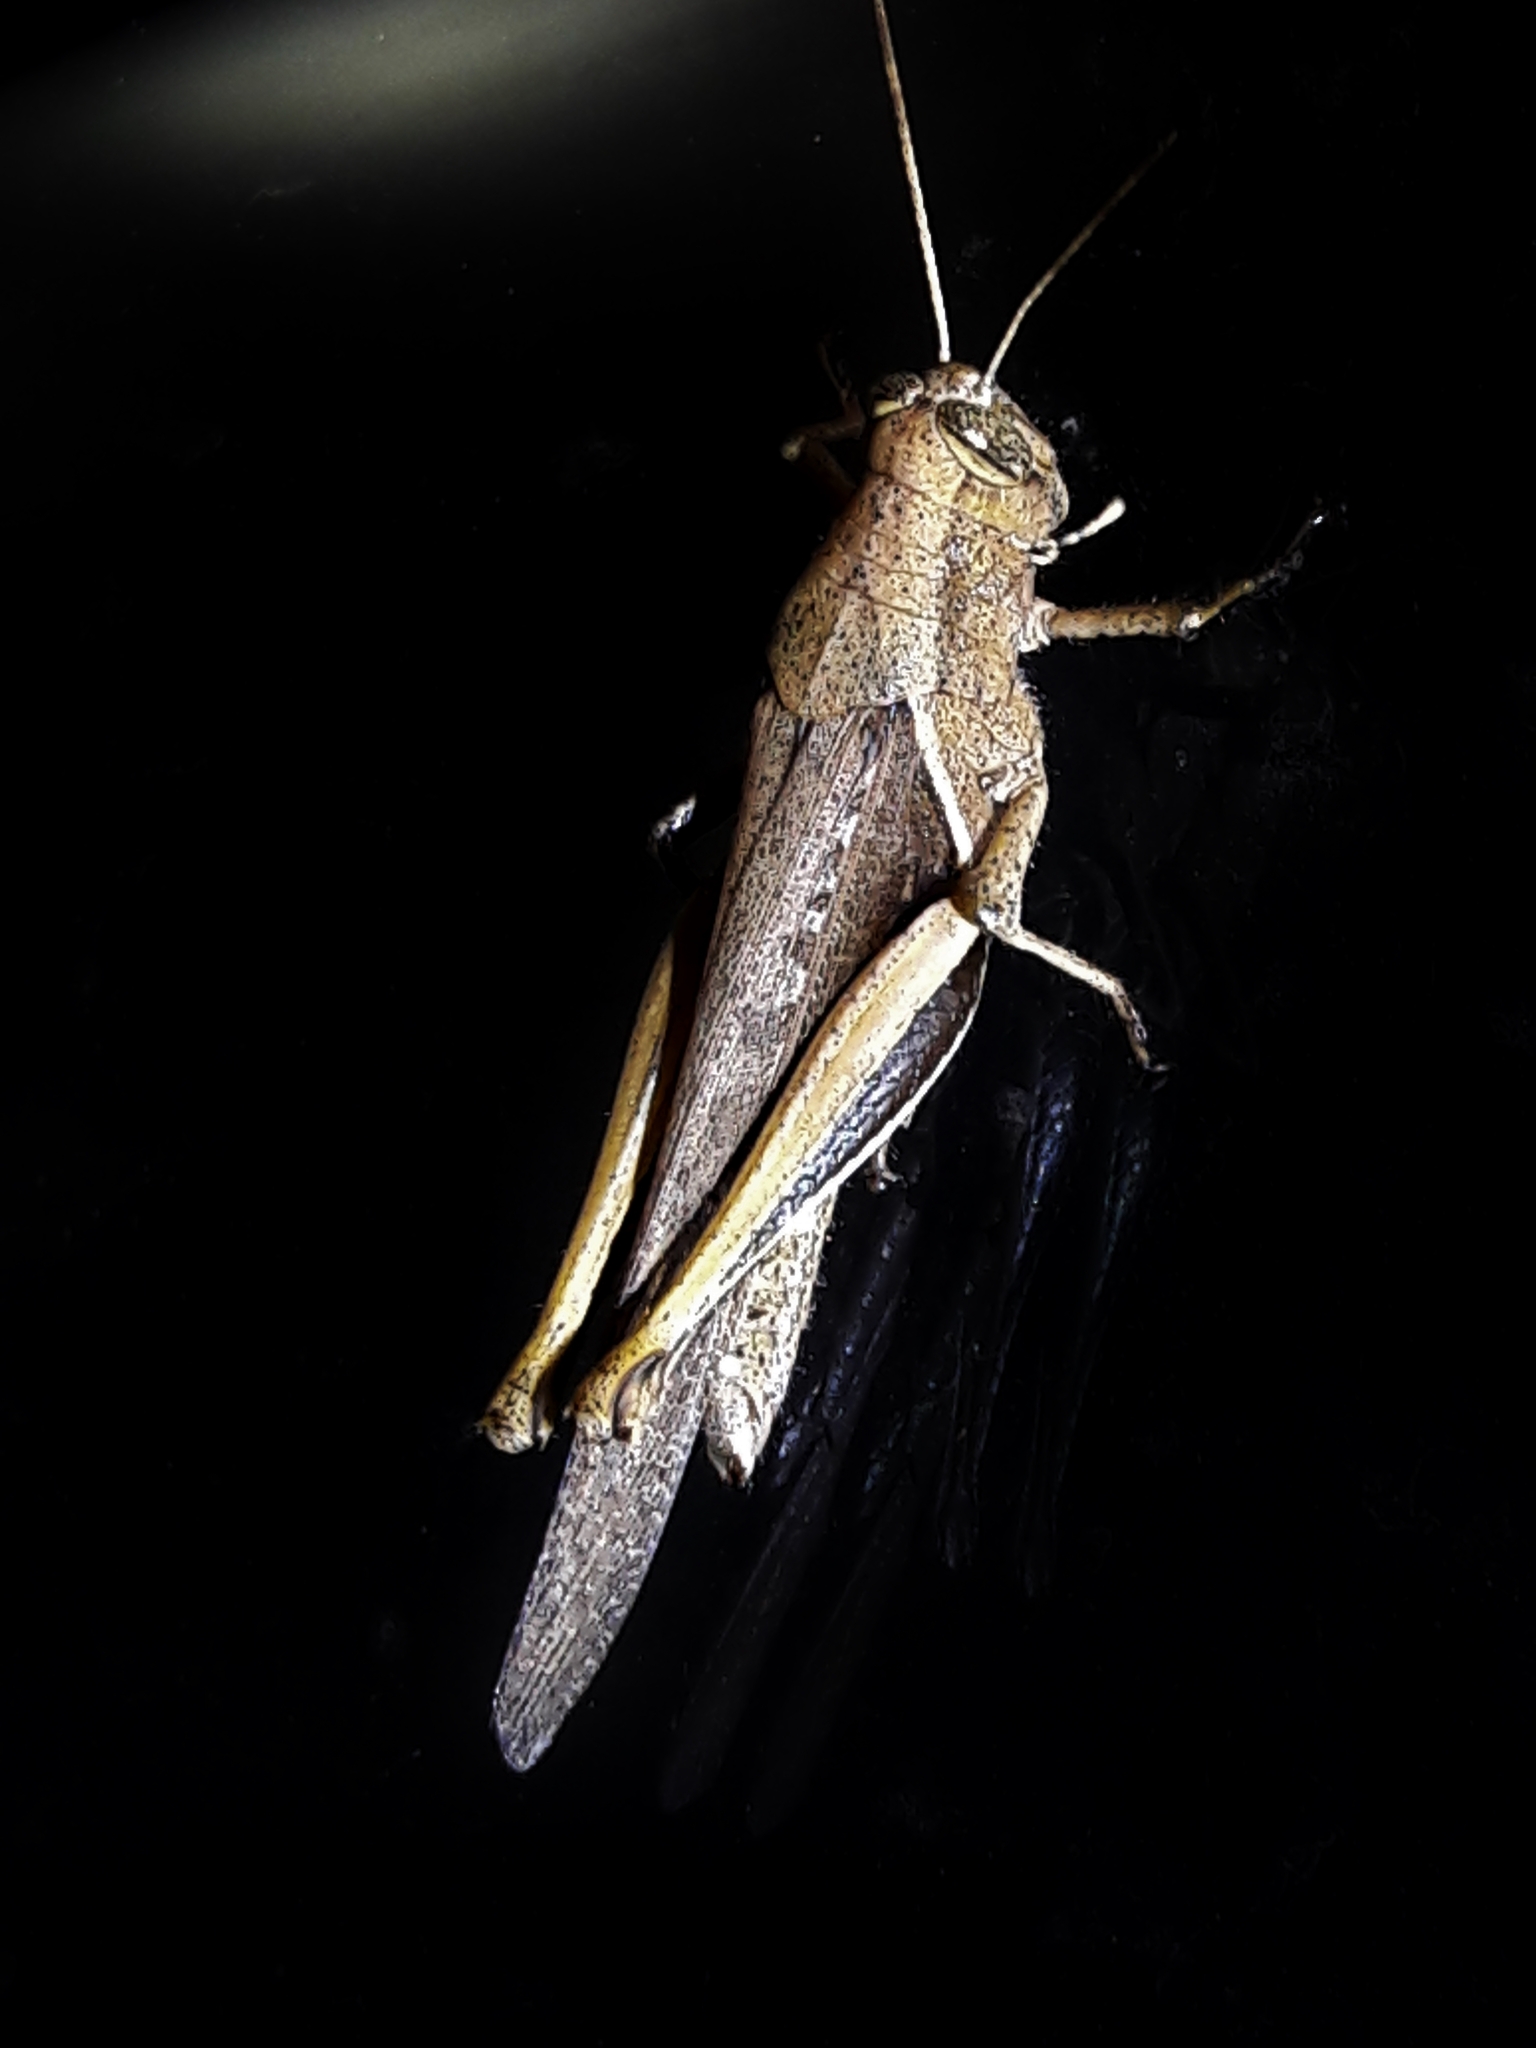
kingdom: Animalia
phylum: Arthropoda
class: Insecta
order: Orthoptera
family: Acrididae
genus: Abracris
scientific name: Abracris flavolineata
